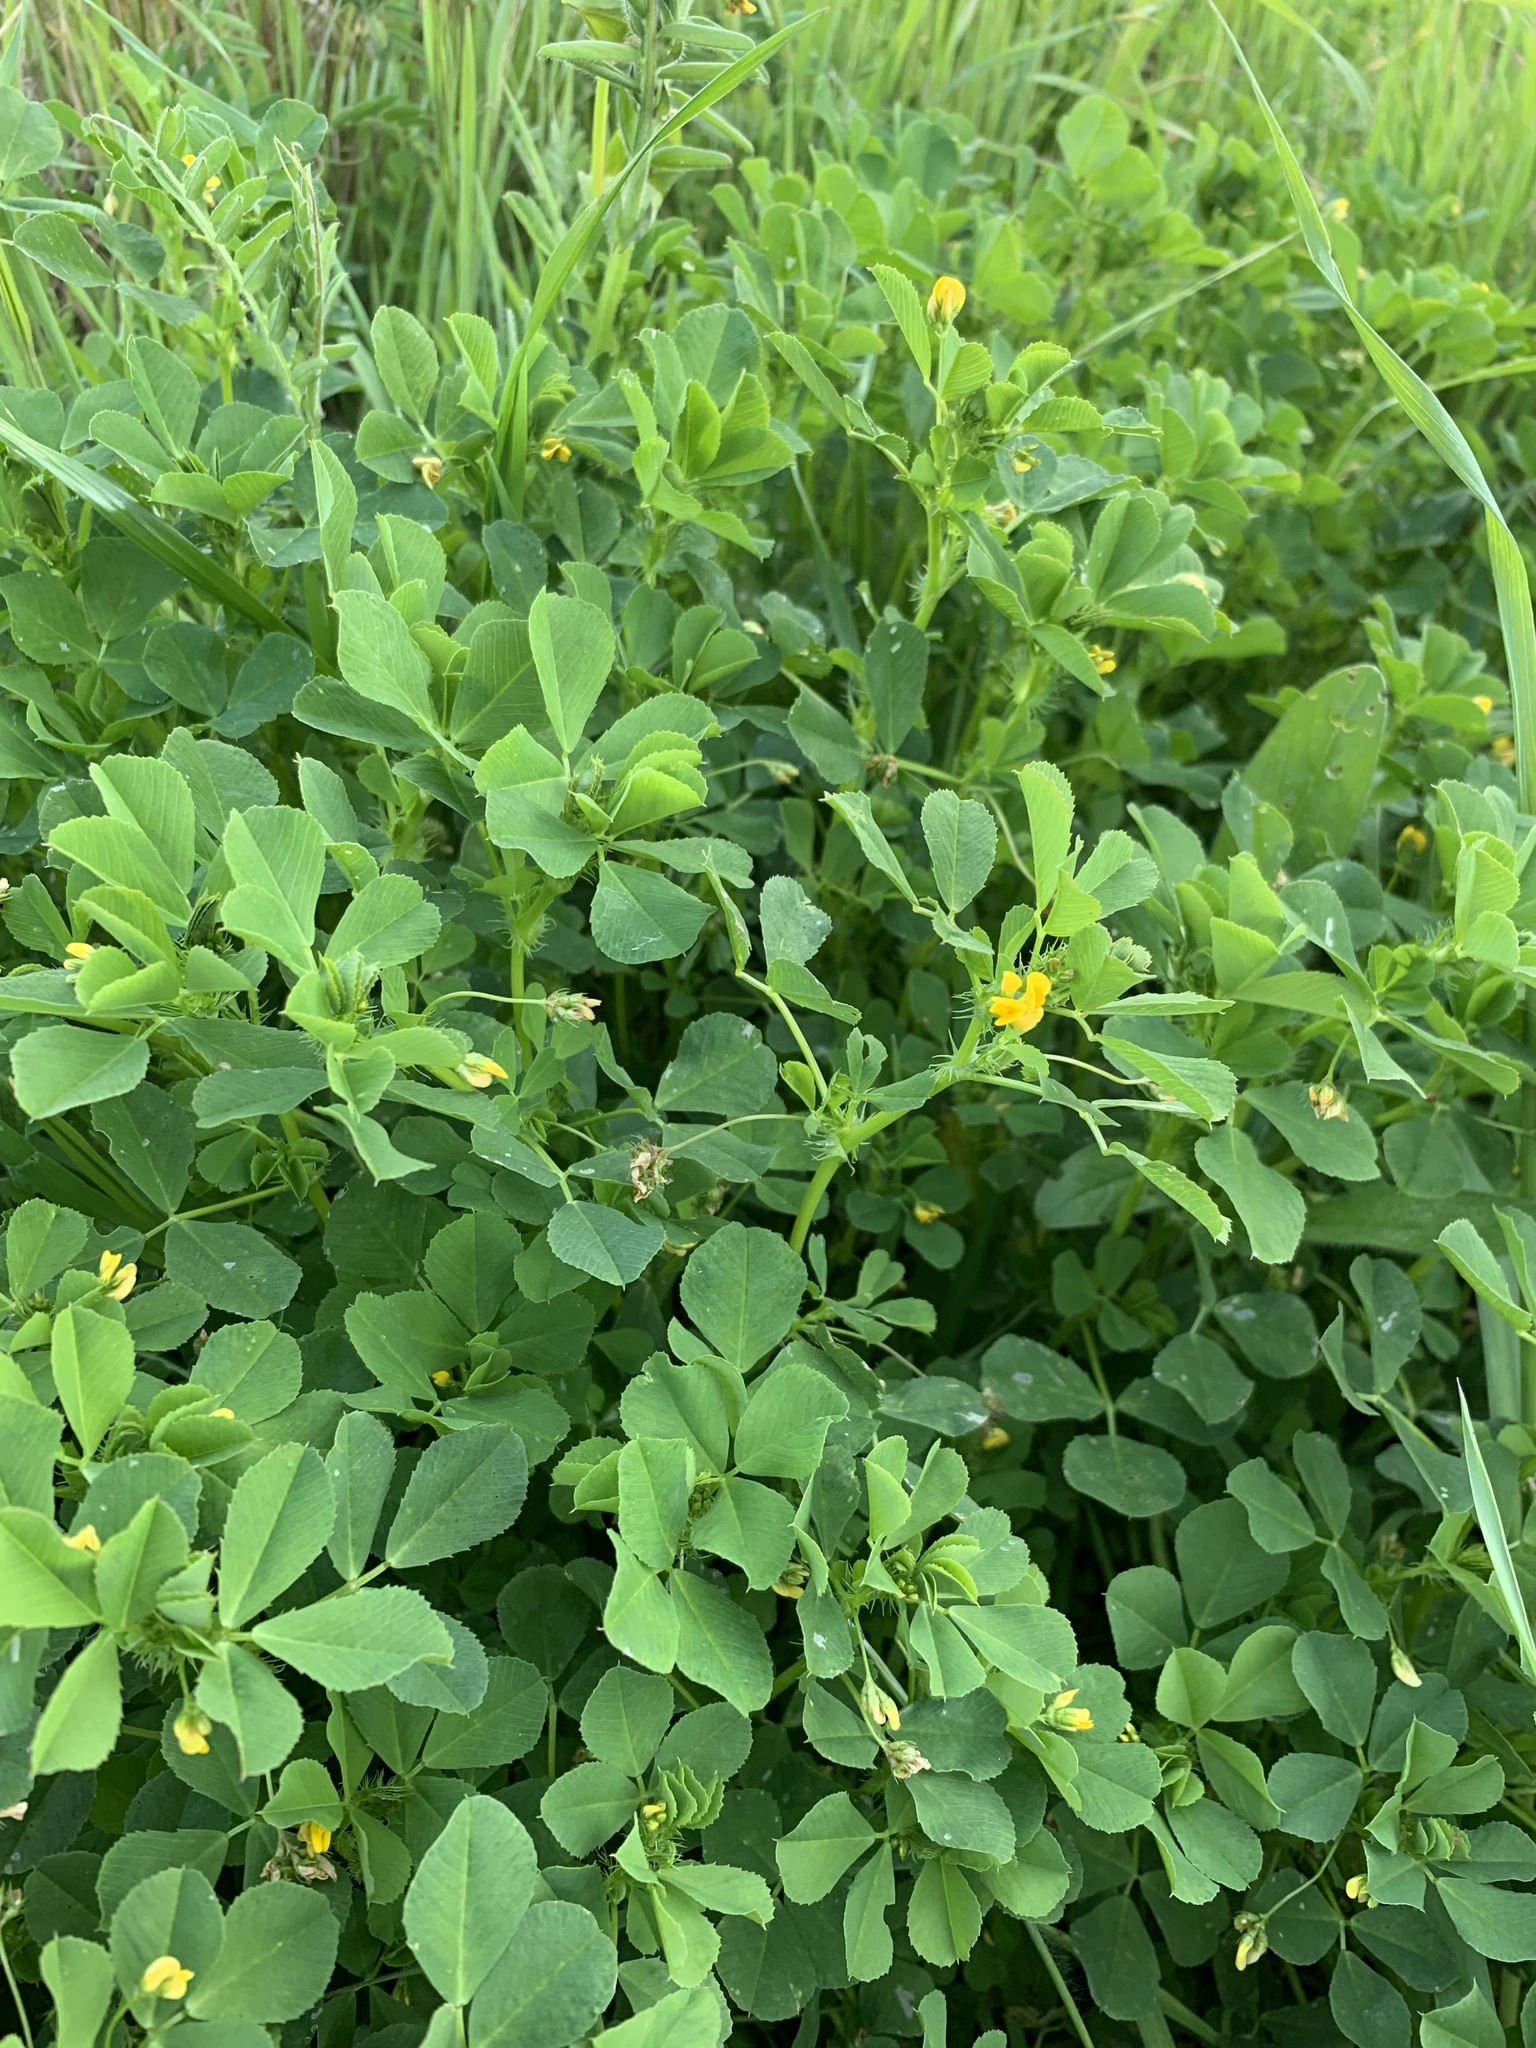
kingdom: Plantae
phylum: Tracheophyta
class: Magnoliopsida
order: Fabales
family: Fabaceae
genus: Medicago
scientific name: Medicago polymorpha
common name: Burclover
